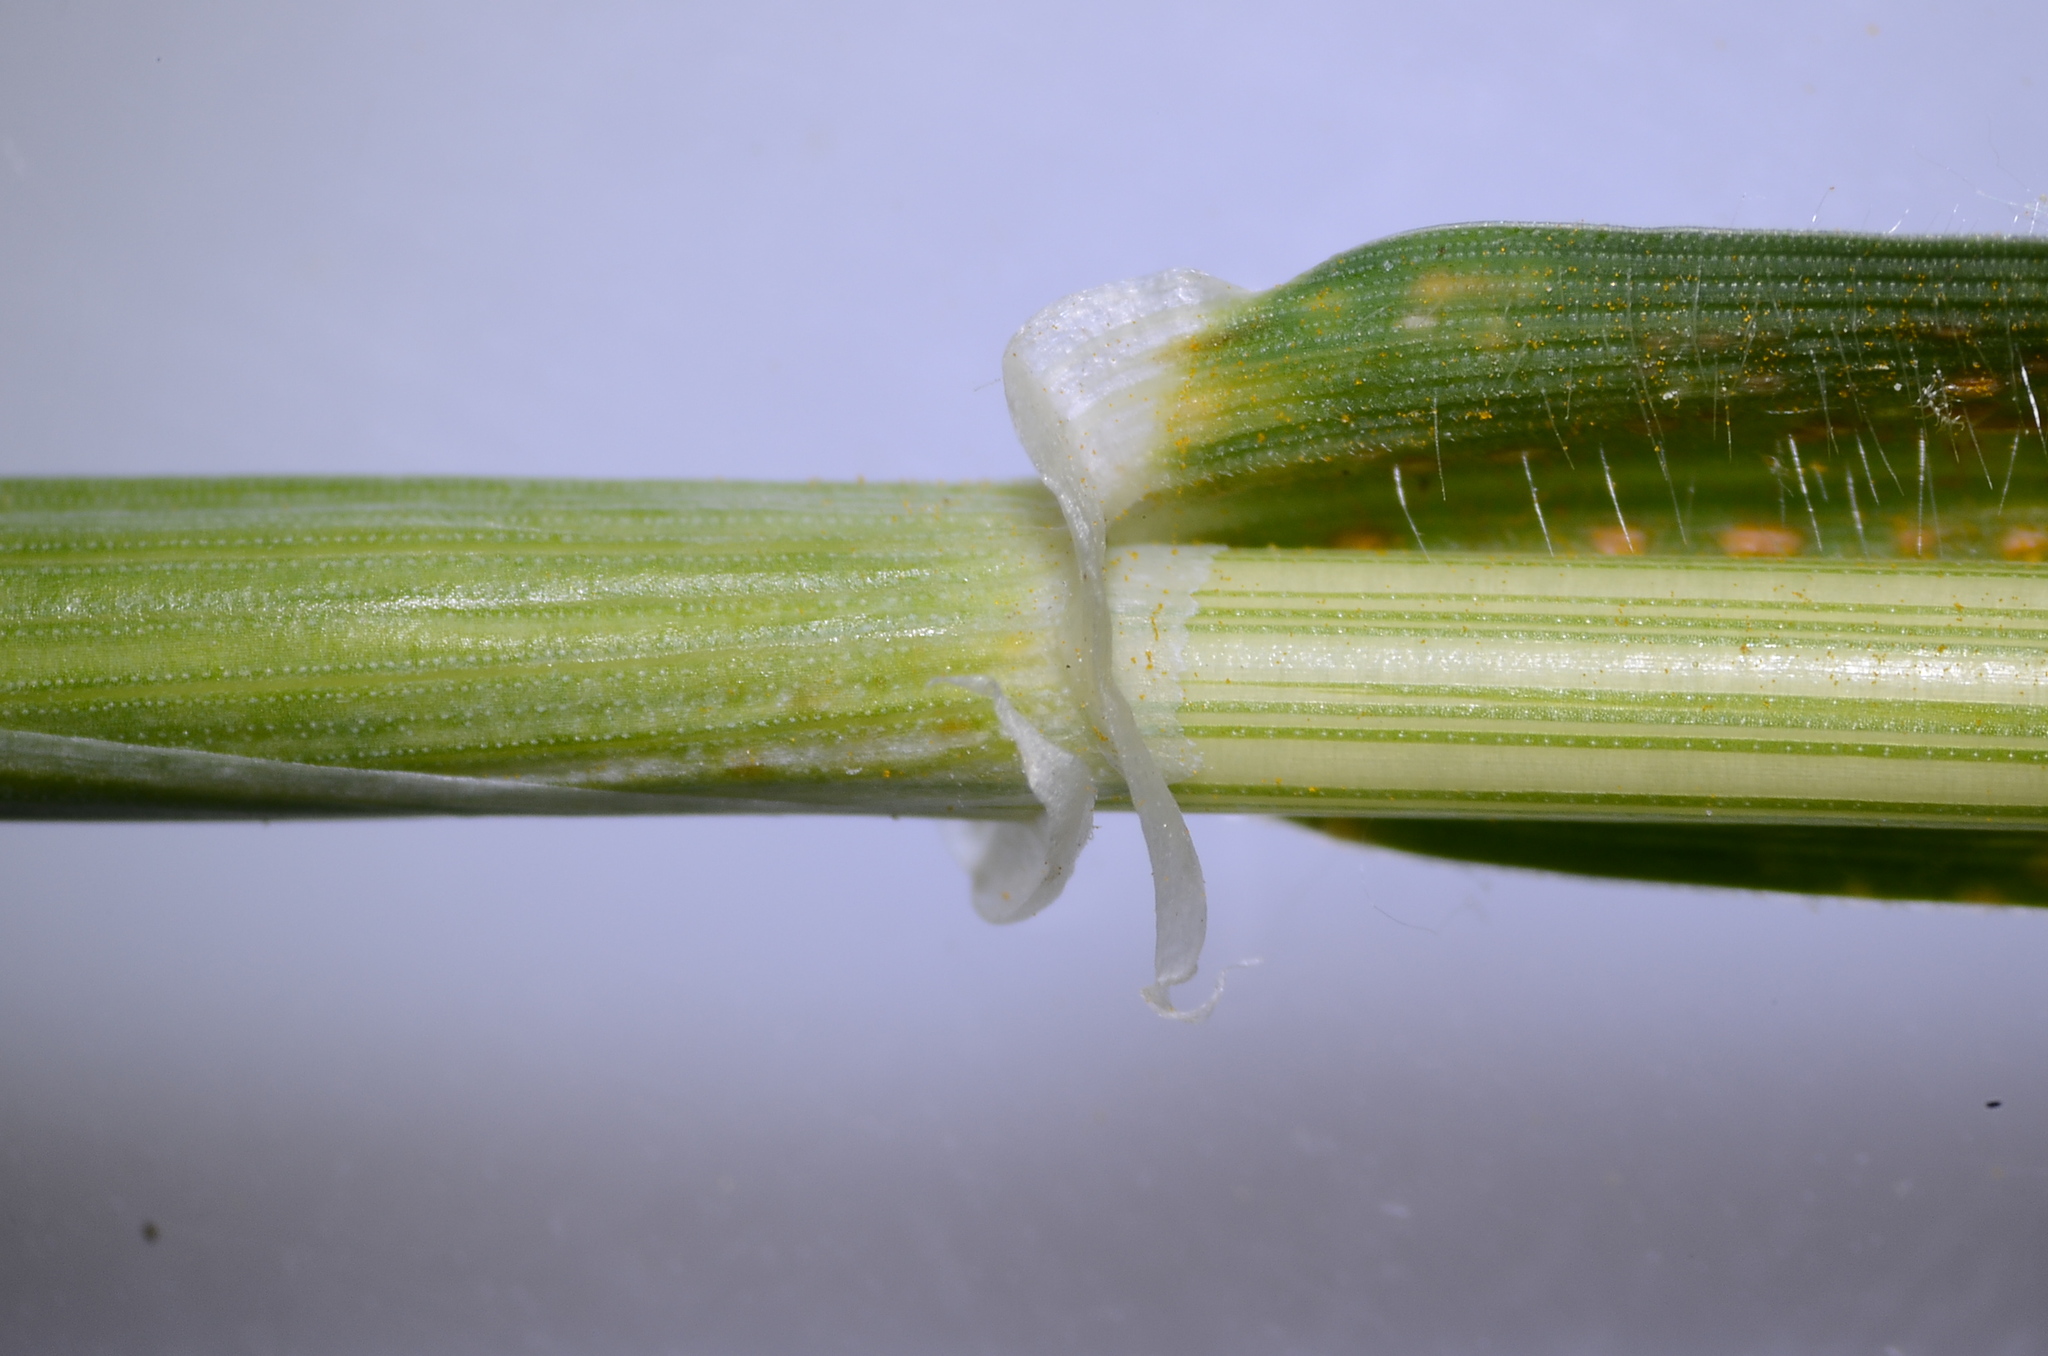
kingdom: Plantae
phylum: Tracheophyta
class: Liliopsida
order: Poales
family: Poaceae
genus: Hordeum
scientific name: Hordeum murinum
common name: Wall barley
